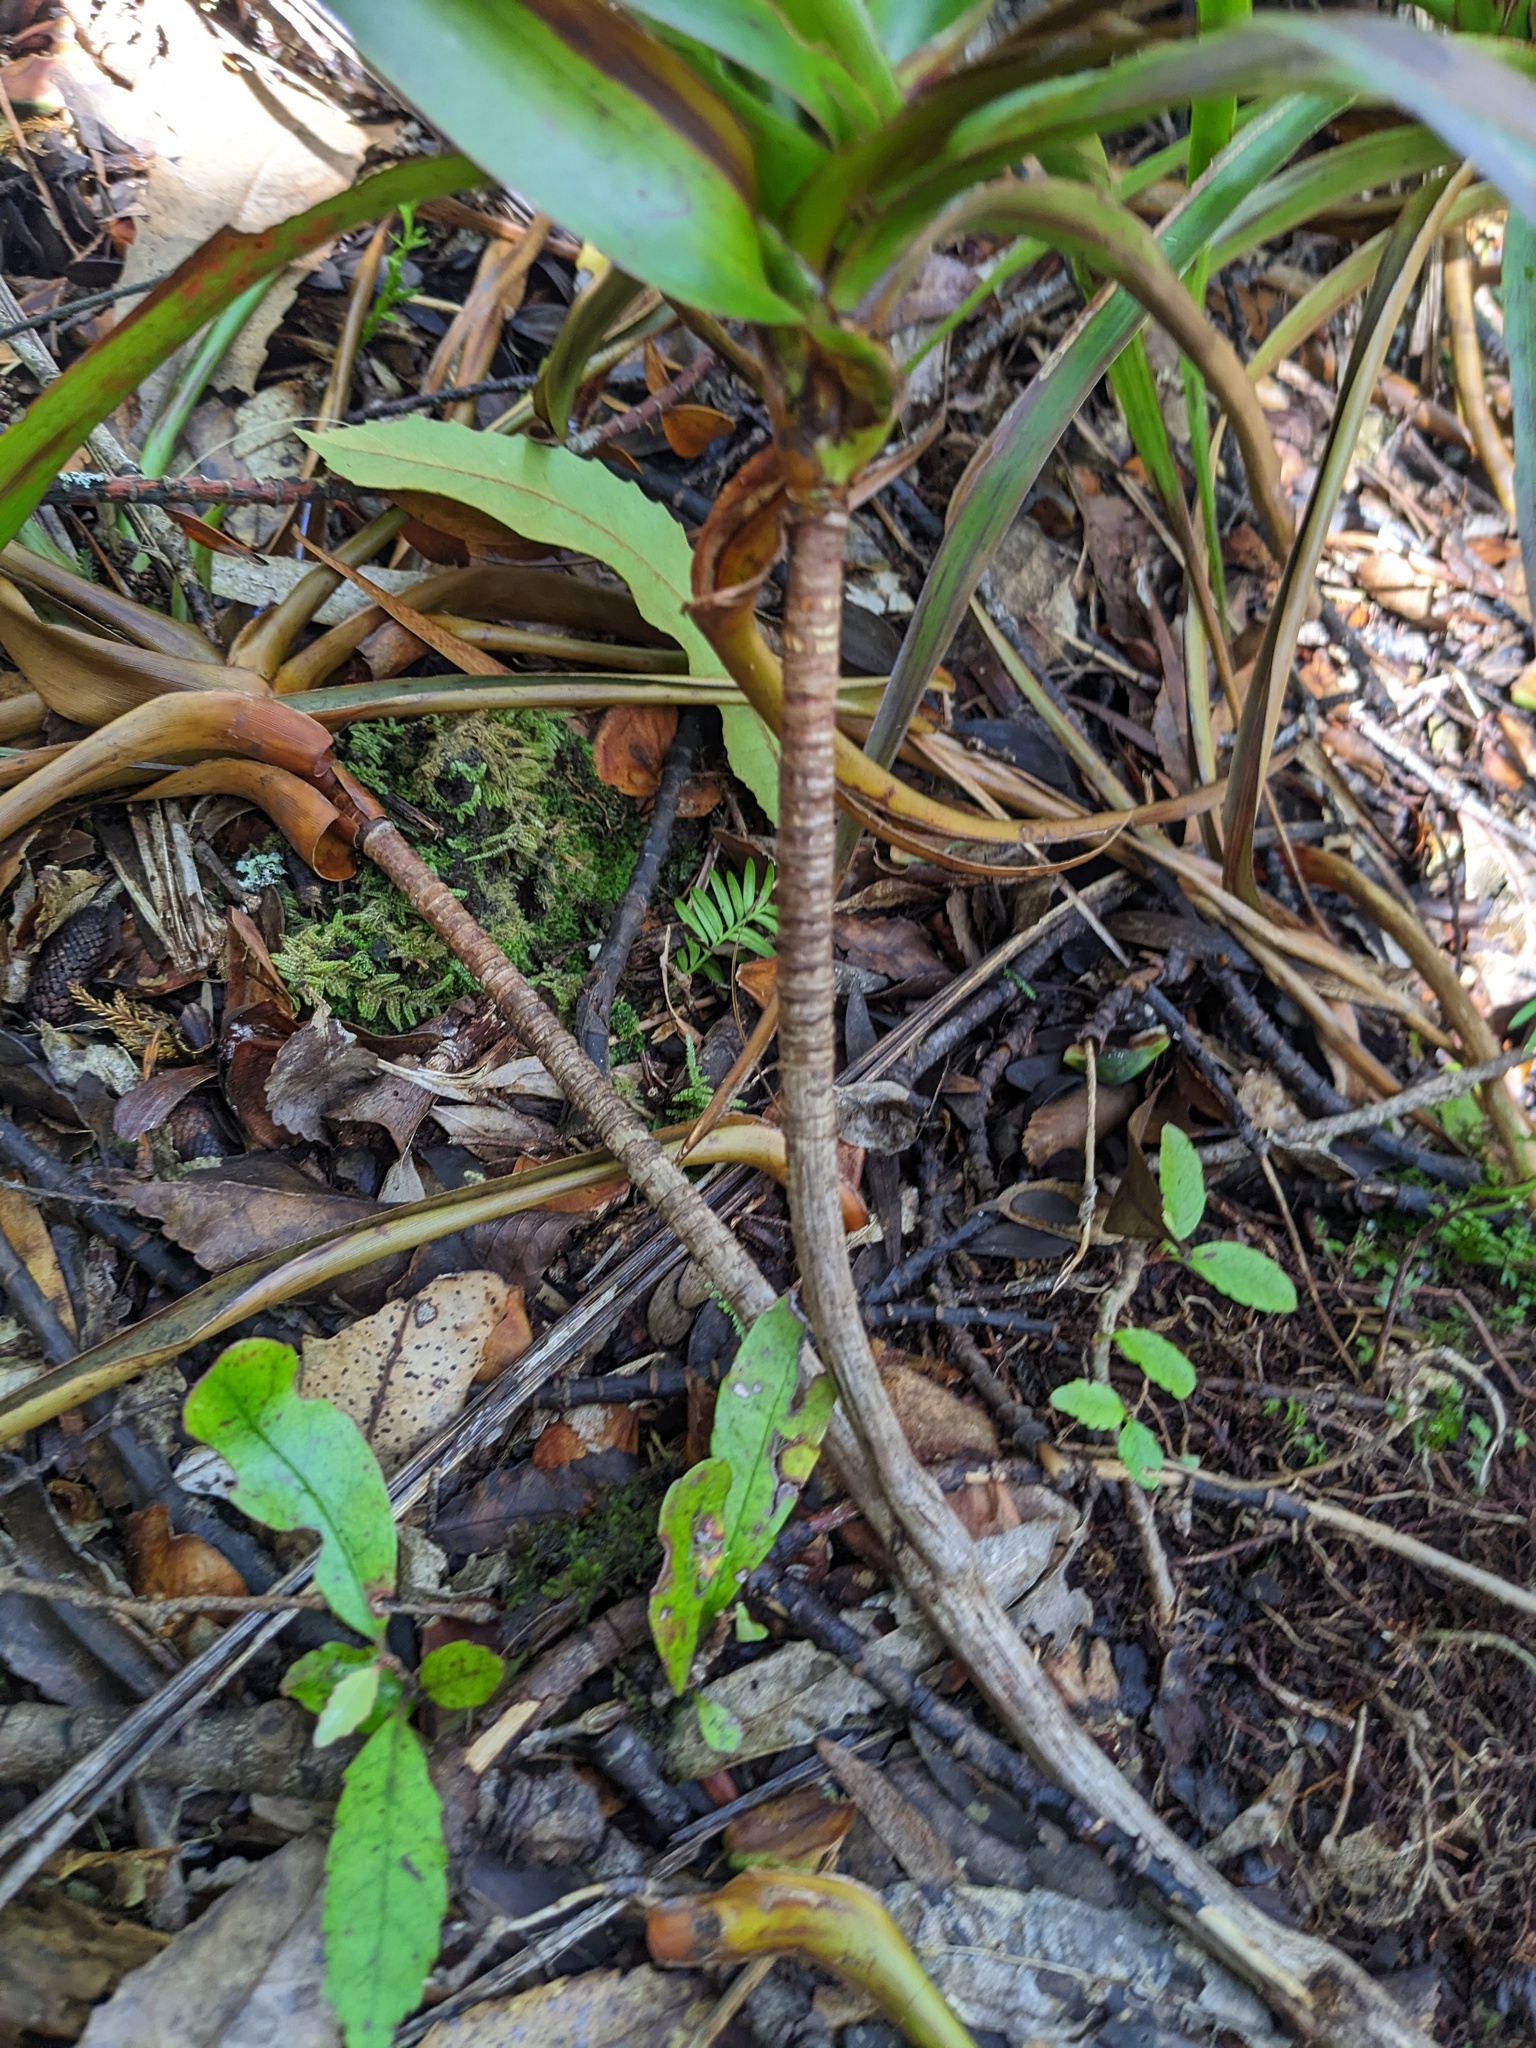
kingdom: Plantae
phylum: Tracheophyta
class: Magnoliopsida
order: Ericales
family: Ericaceae
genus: Dracophyllum
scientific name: Dracophyllum latifolium
